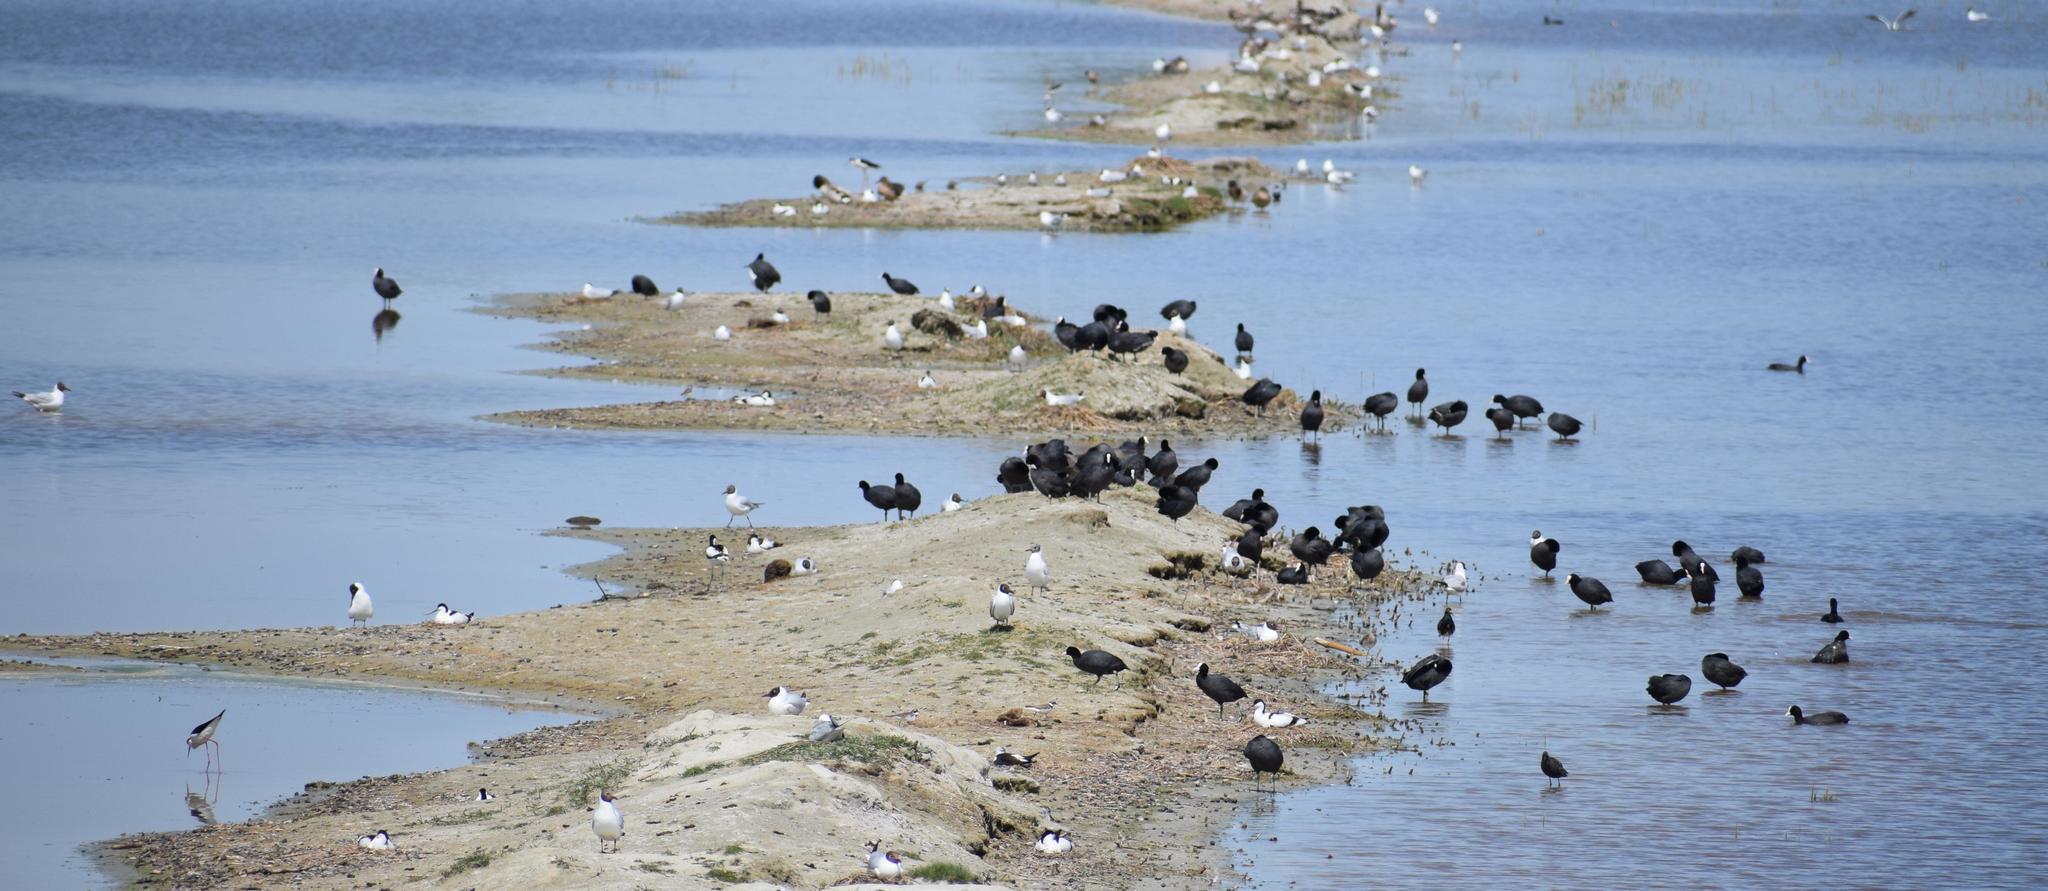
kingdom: Animalia
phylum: Chordata
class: Aves
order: Gruiformes
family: Rallidae
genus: Fulica
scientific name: Fulica atra
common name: Eurasian coot
